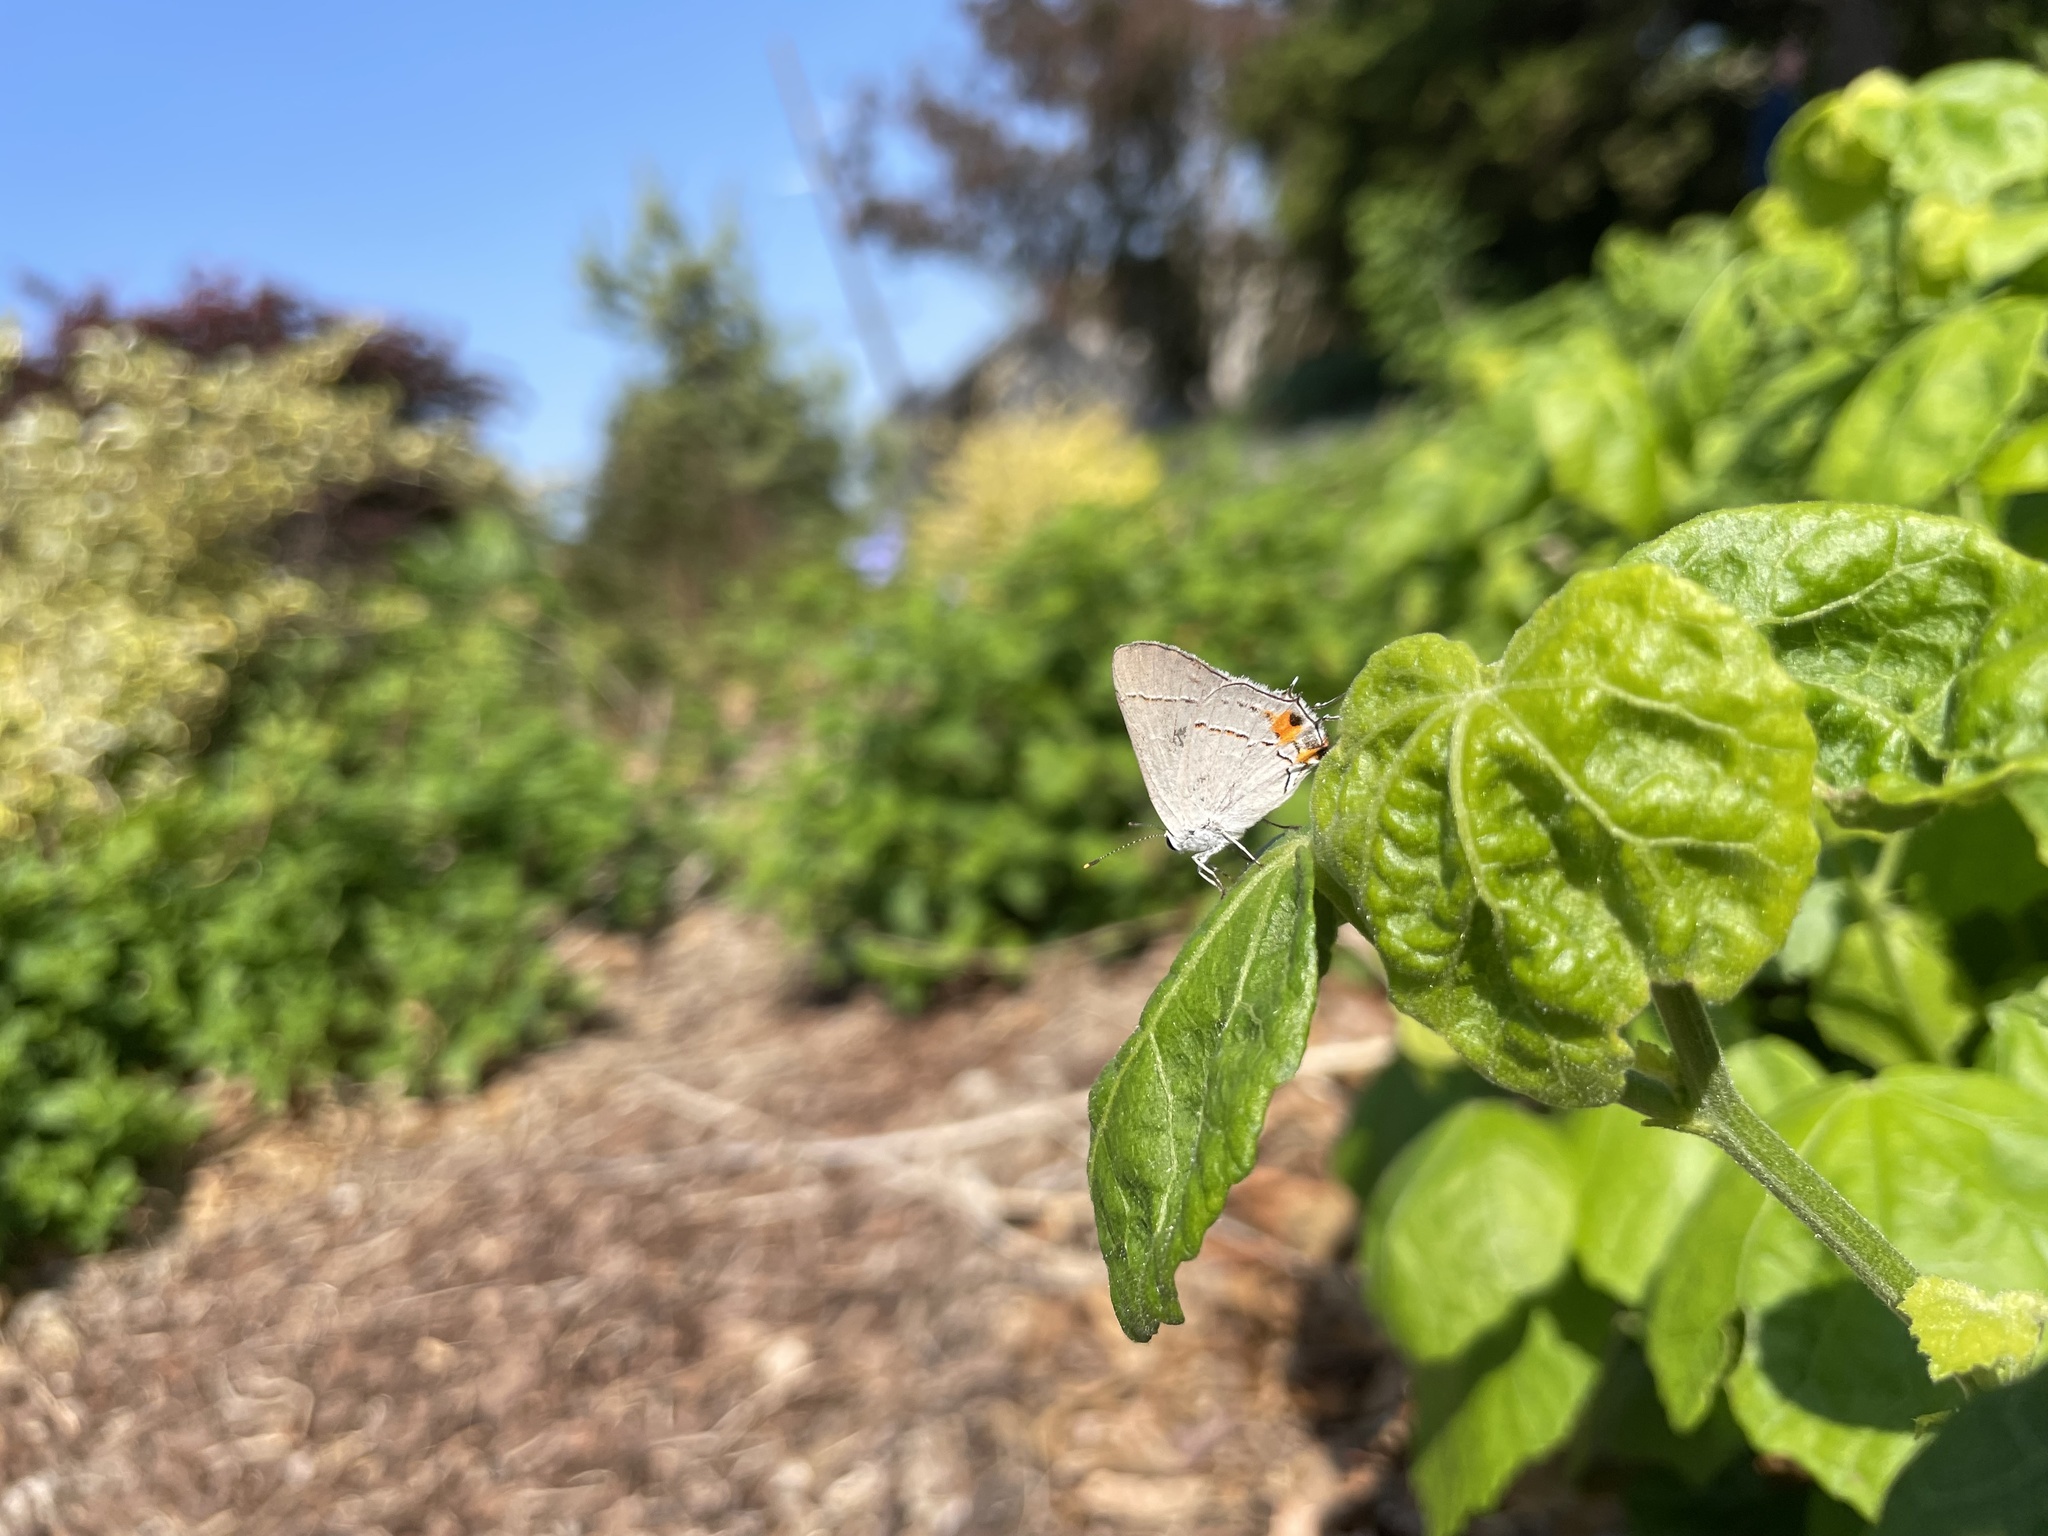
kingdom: Animalia
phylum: Arthropoda
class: Insecta
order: Lepidoptera
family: Lycaenidae
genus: Strymon
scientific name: Strymon melinus
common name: Gray hairstreak
